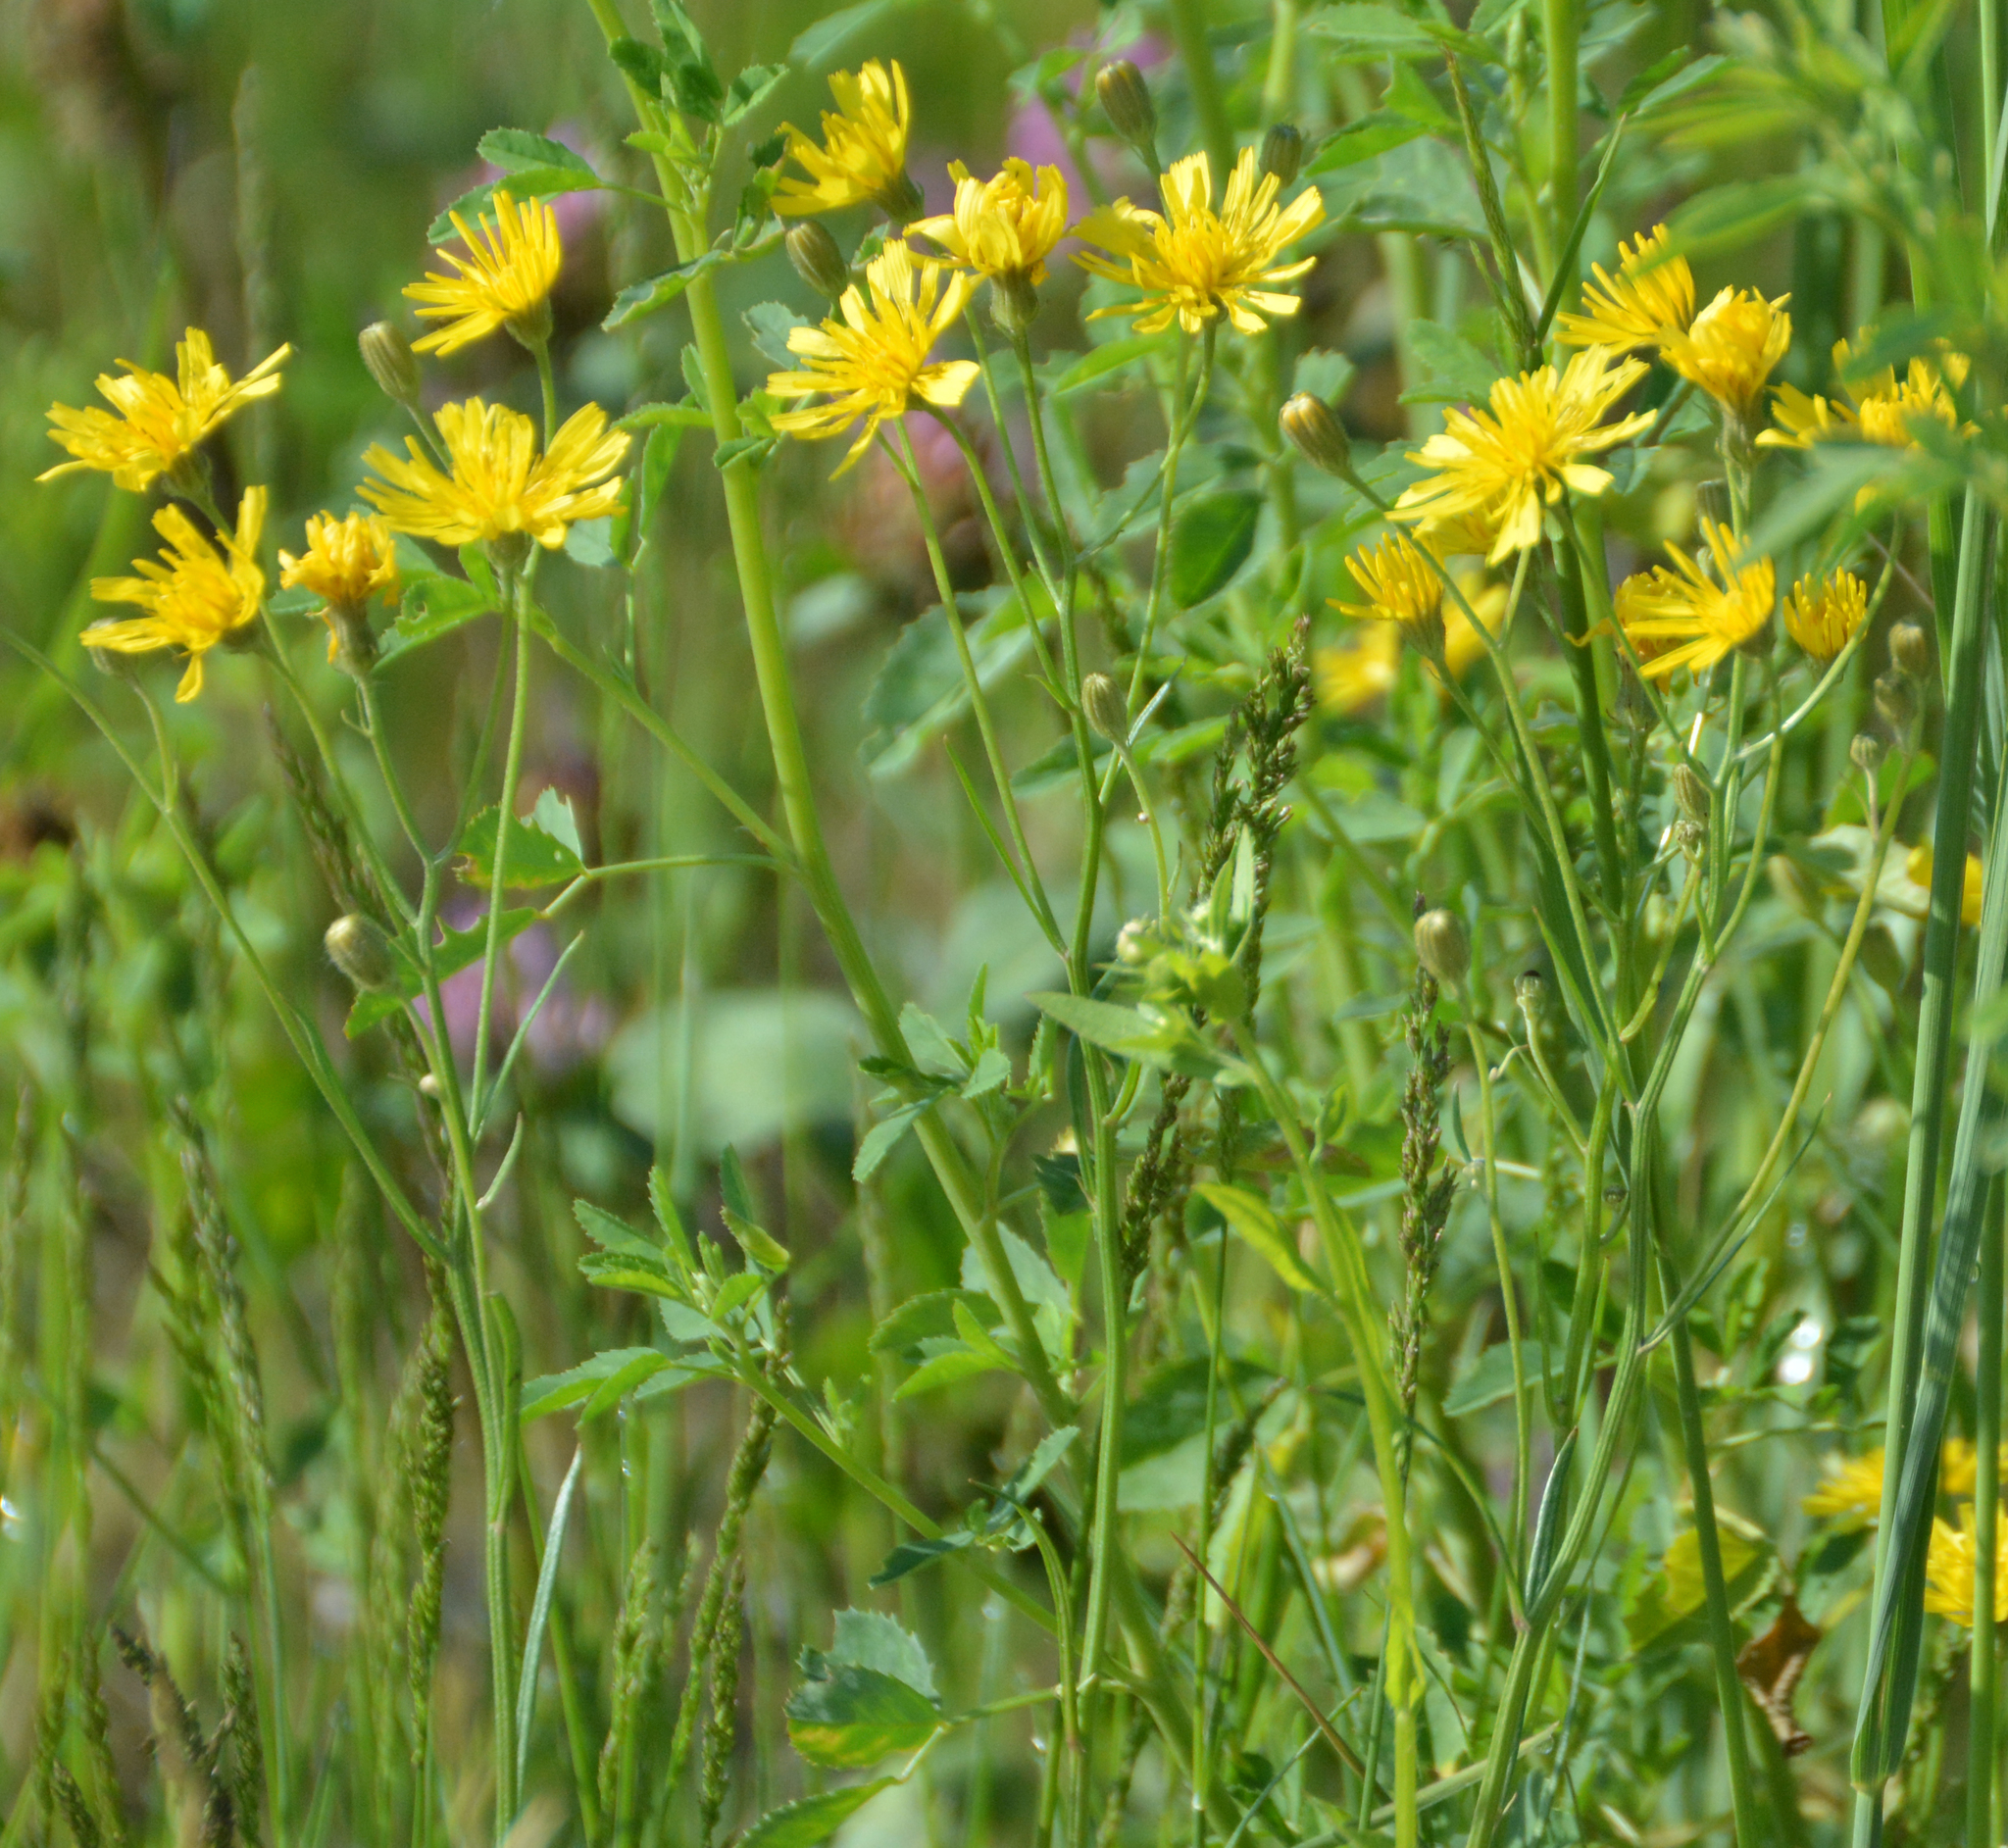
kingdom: Plantae
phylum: Tracheophyta
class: Magnoliopsida
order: Asterales
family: Asteraceae
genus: Crepis
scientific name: Crepis tectorum
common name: Narrow-leaved hawk's-beard
